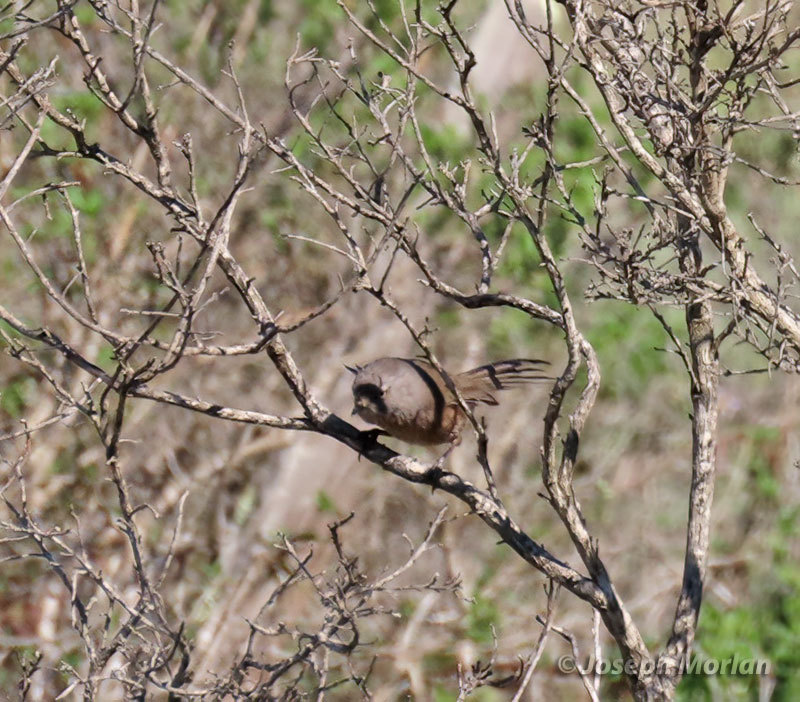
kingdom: Animalia
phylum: Chordata
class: Aves
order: Passeriformes
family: Sylviidae
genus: Chamaea
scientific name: Chamaea fasciata
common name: Wrentit
